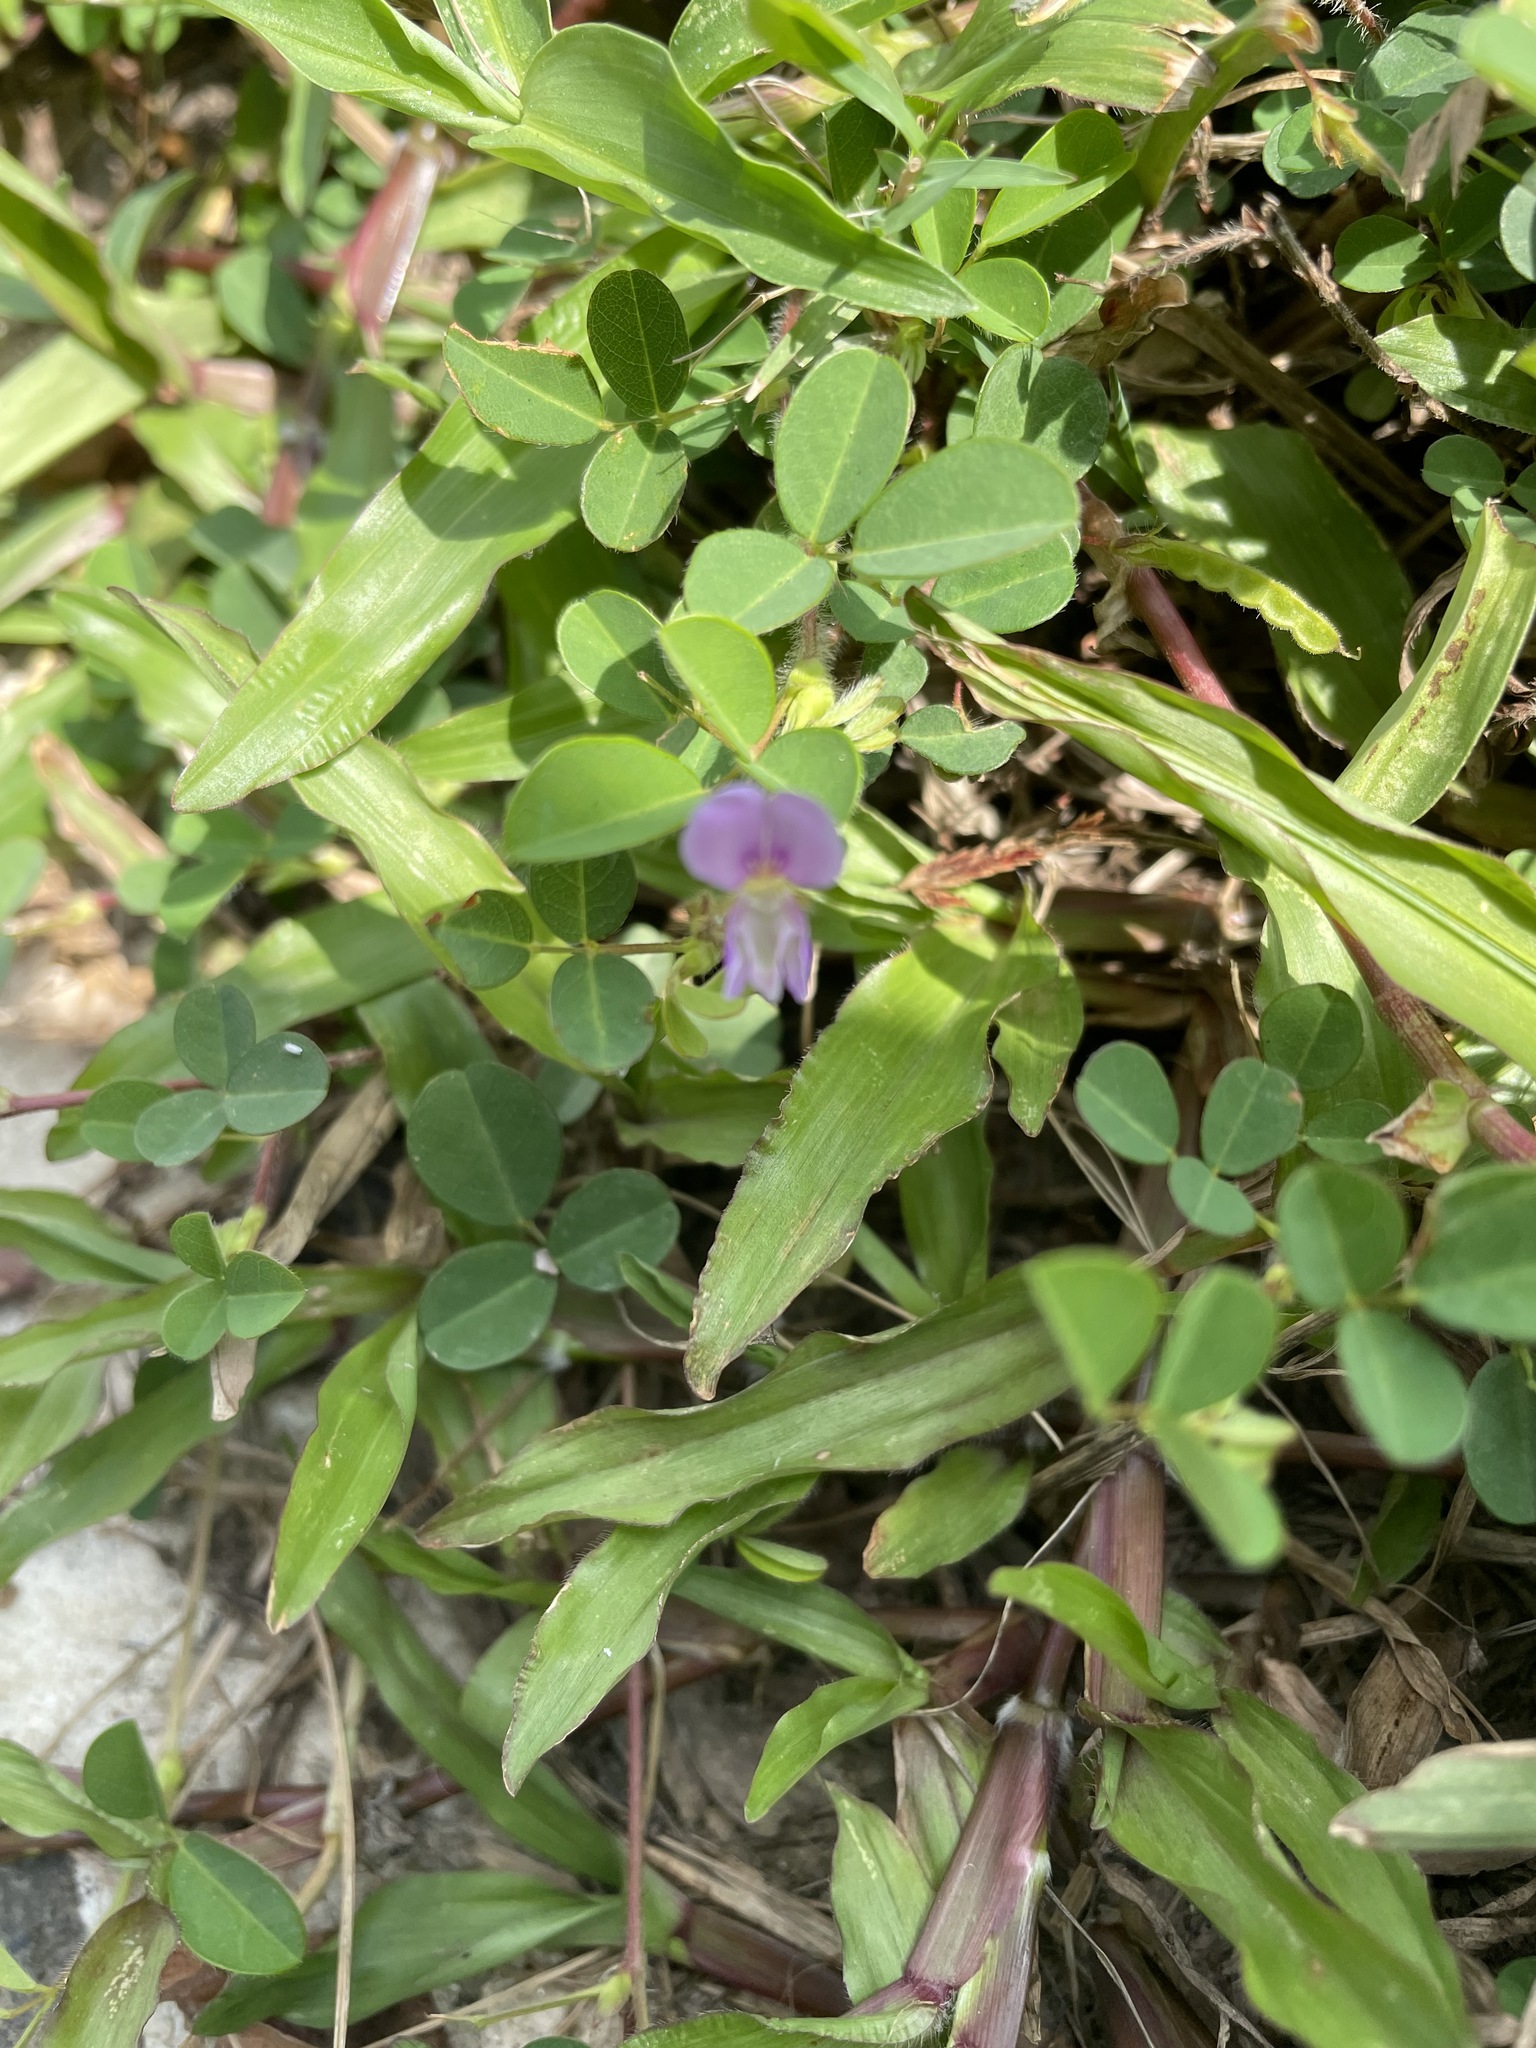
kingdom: Plantae
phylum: Tracheophyta
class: Magnoliopsida
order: Fabales
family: Fabaceae
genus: Grona
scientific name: Grona heterophylla
